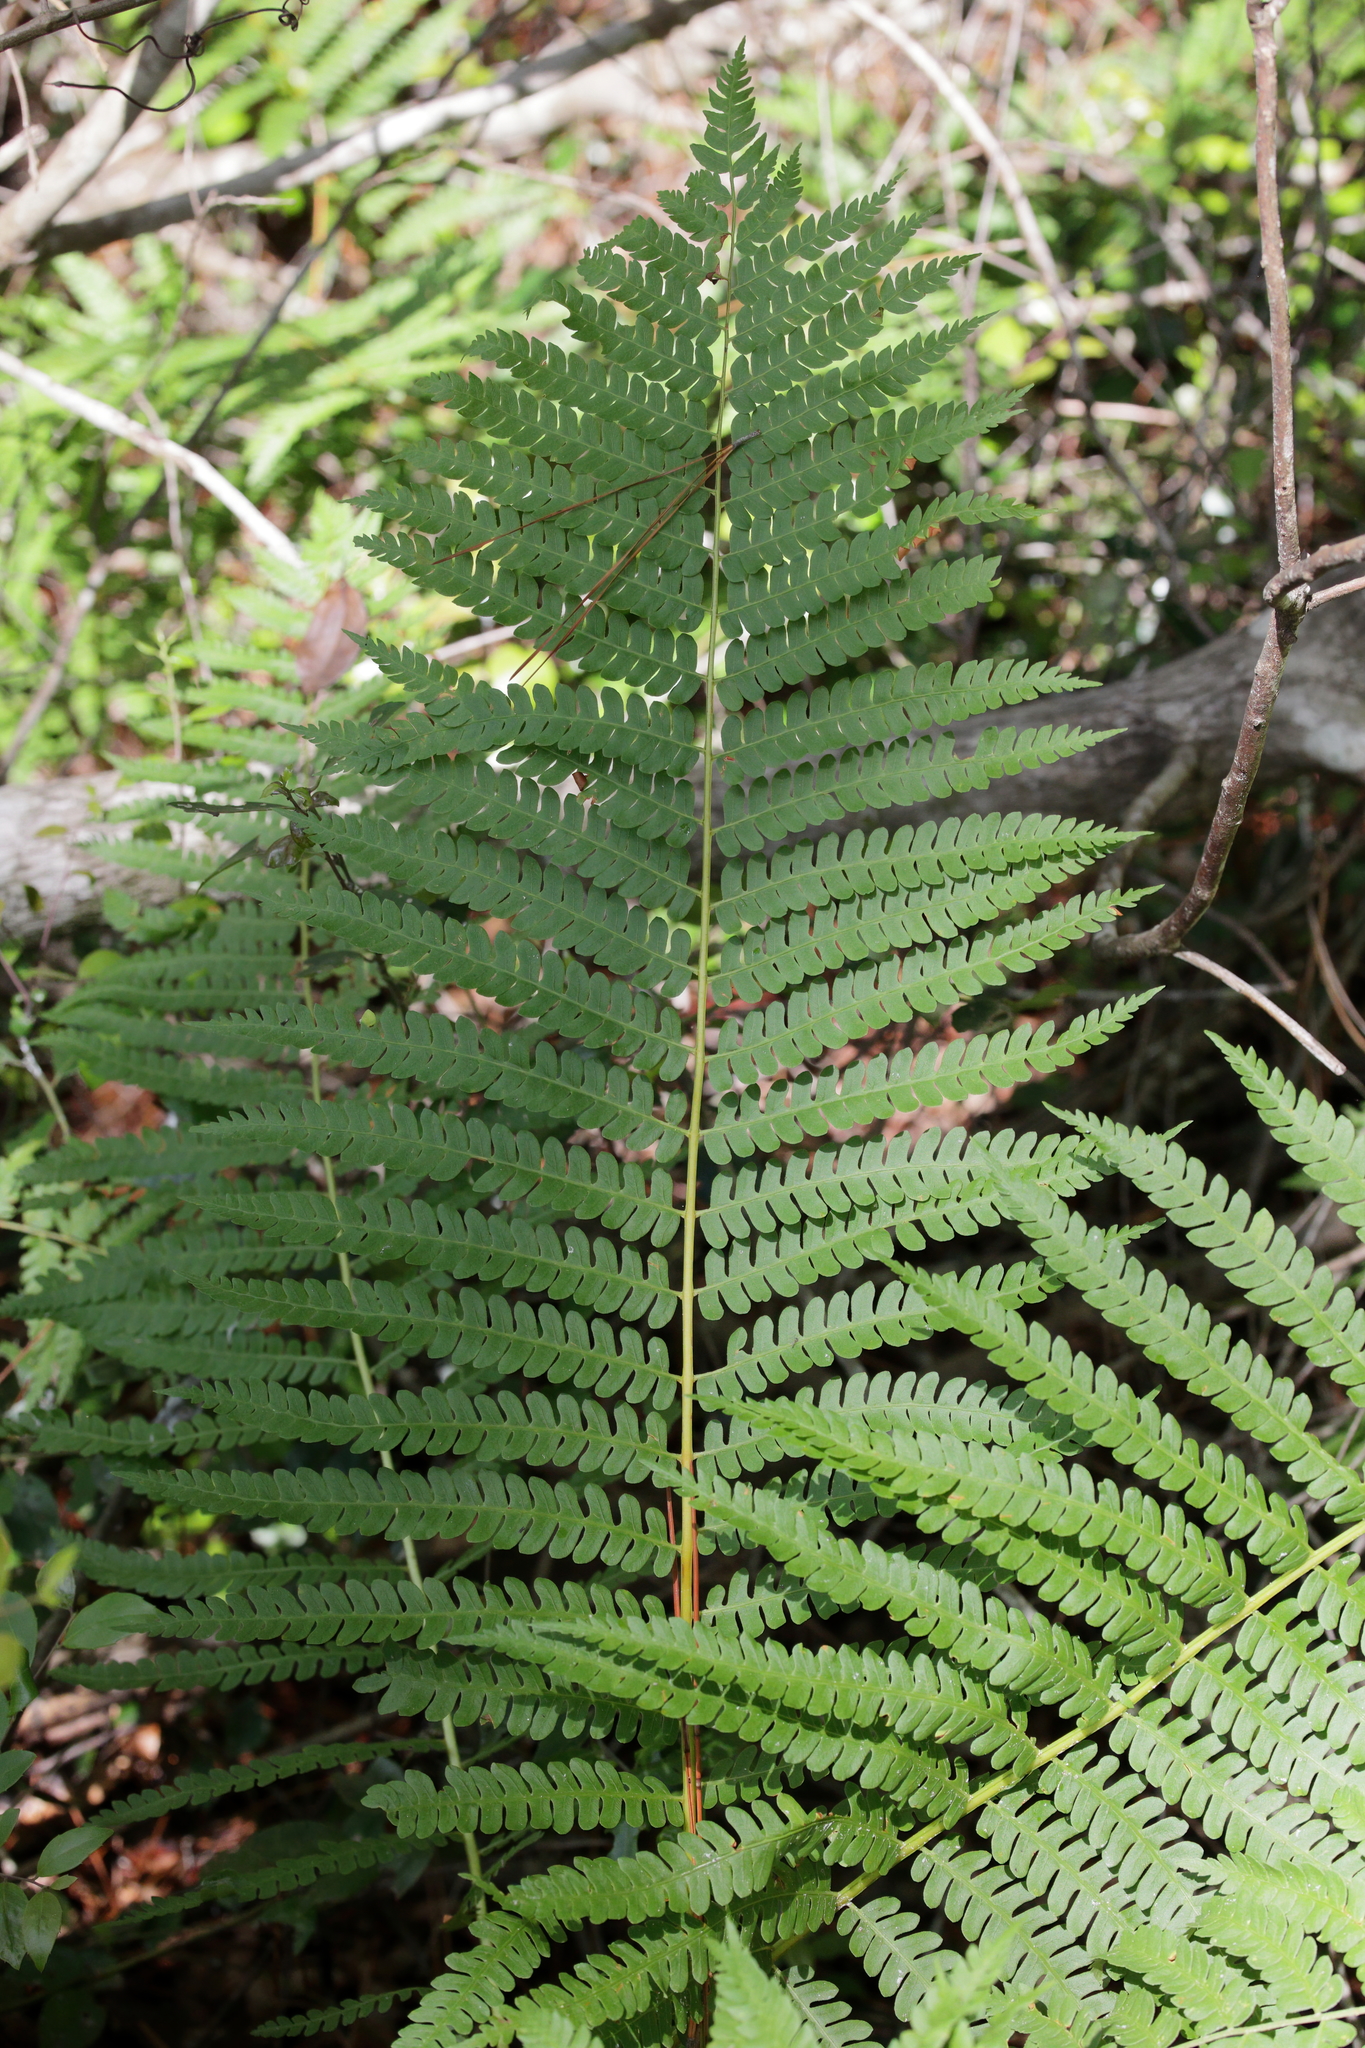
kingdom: Plantae
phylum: Tracheophyta
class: Polypodiopsida
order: Osmundales
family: Osmundaceae
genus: Osmundastrum
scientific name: Osmundastrum cinnamomeum
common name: Cinnamon fern
